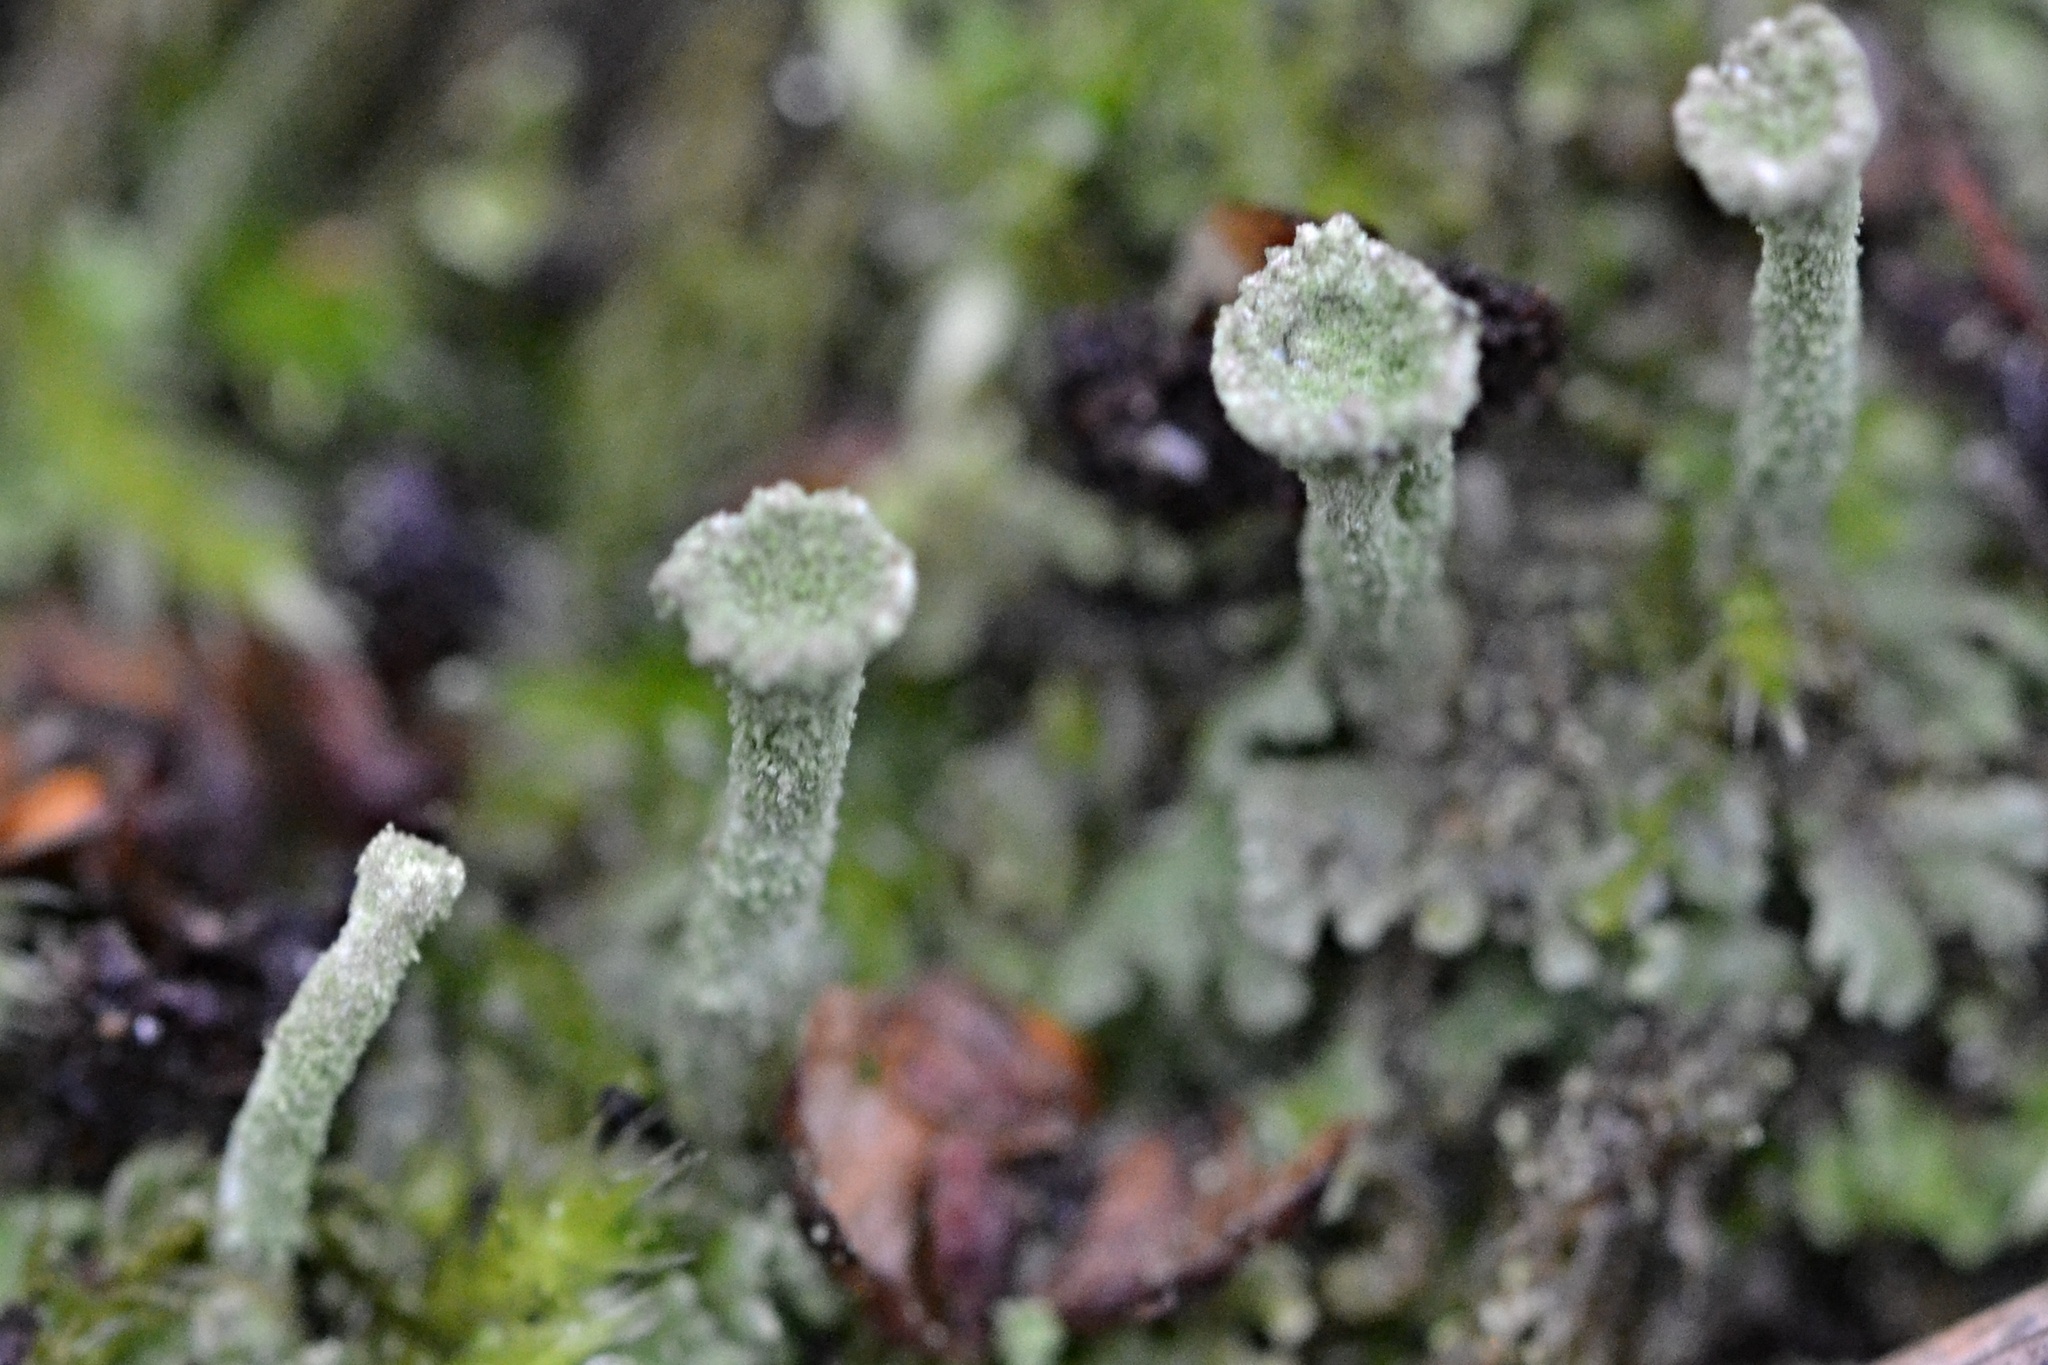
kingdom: Fungi
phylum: Ascomycota
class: Lecanoromycetes
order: Lecanorales
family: Cladoniaceae
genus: Cladonia
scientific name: Cladonia fimbriata
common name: Powdered trumpet lichen
